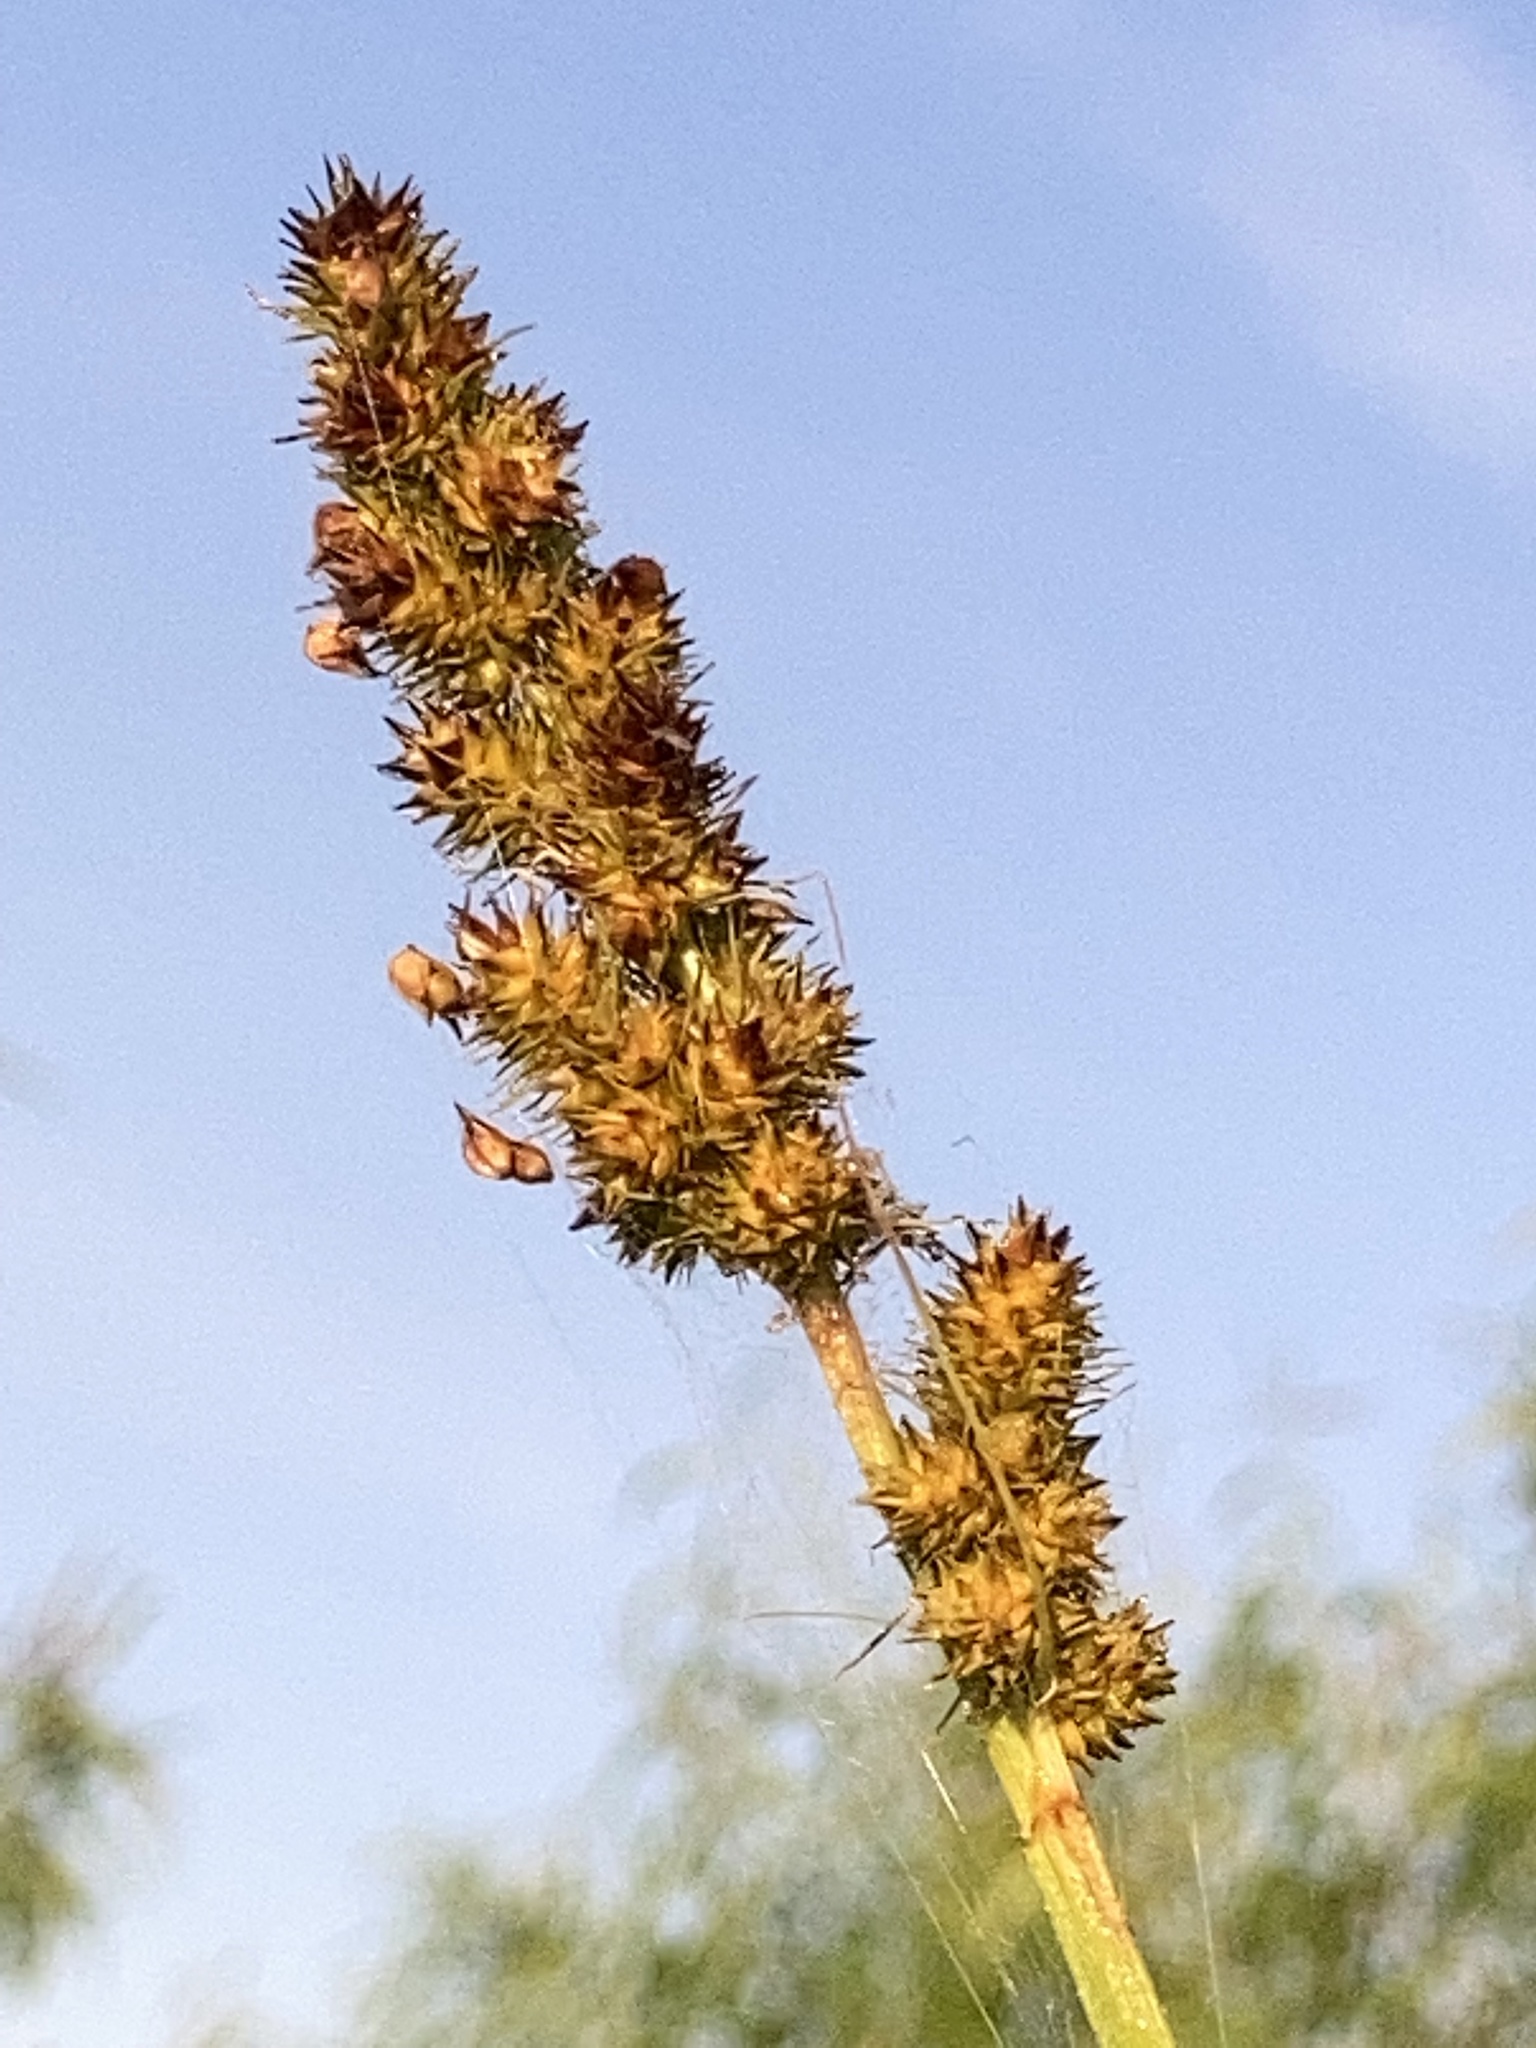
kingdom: Plantae
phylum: Tracheophyta
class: Liliopsida
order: Poales
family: Cyperaceae
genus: Carex
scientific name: Carex annectens
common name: Large fox sedge
